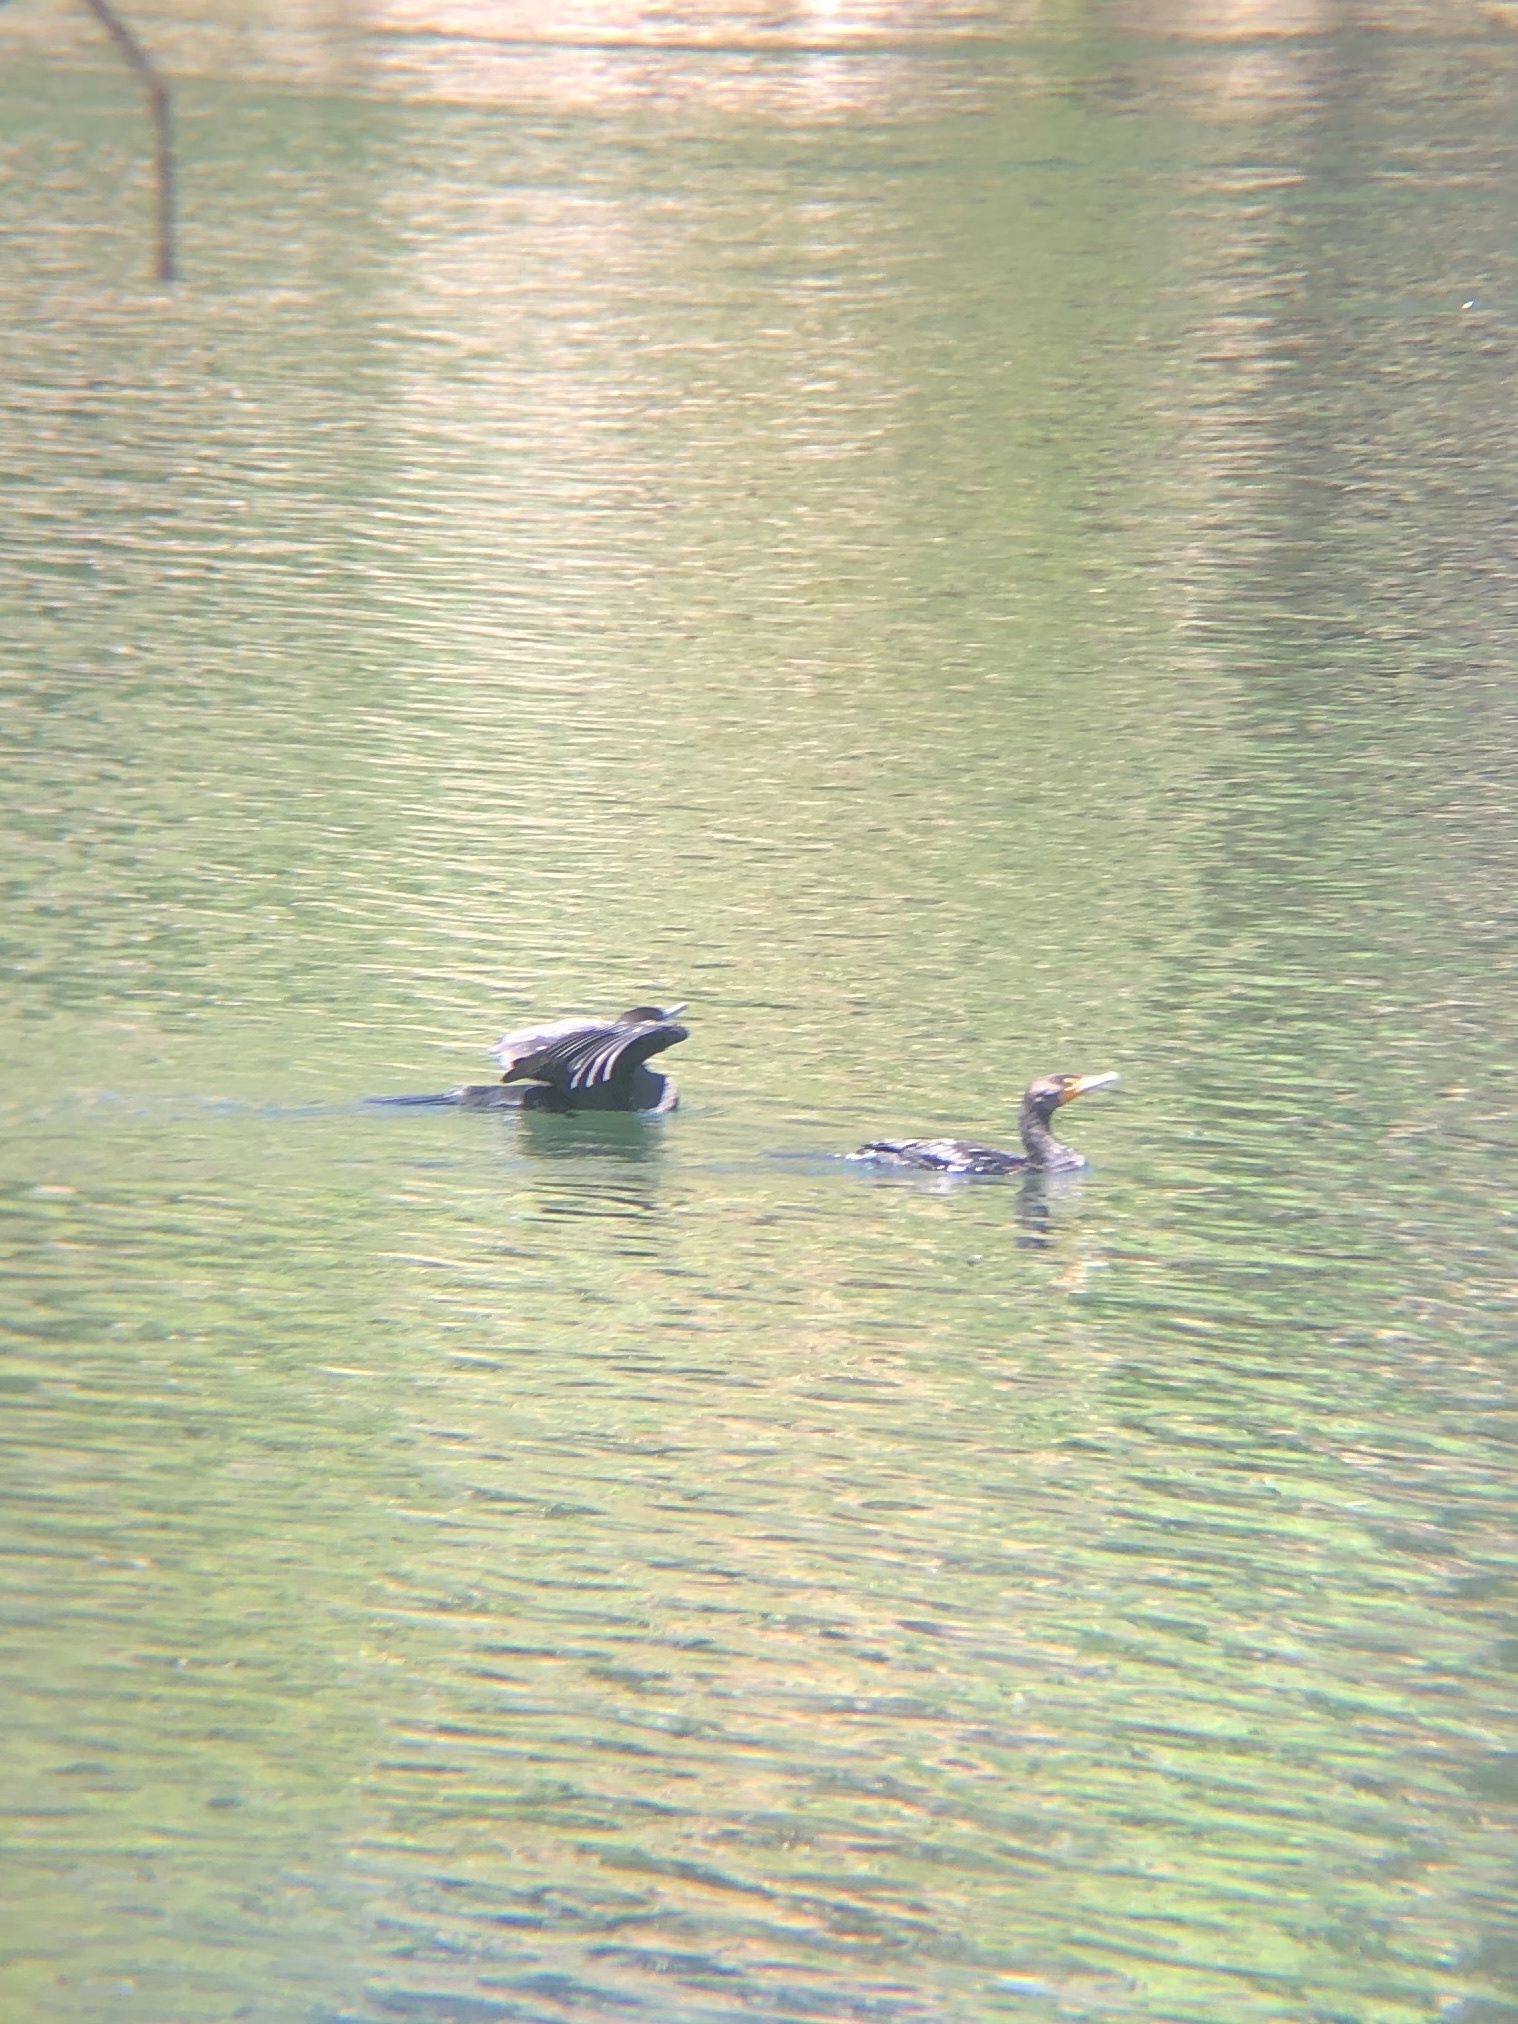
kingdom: Animalia
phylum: Chordata
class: Aves
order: Suliformes
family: Phalacrocoracidae
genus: Phalacrocorax
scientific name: Phalacrocorax auritus
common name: Double-crested cormorant
